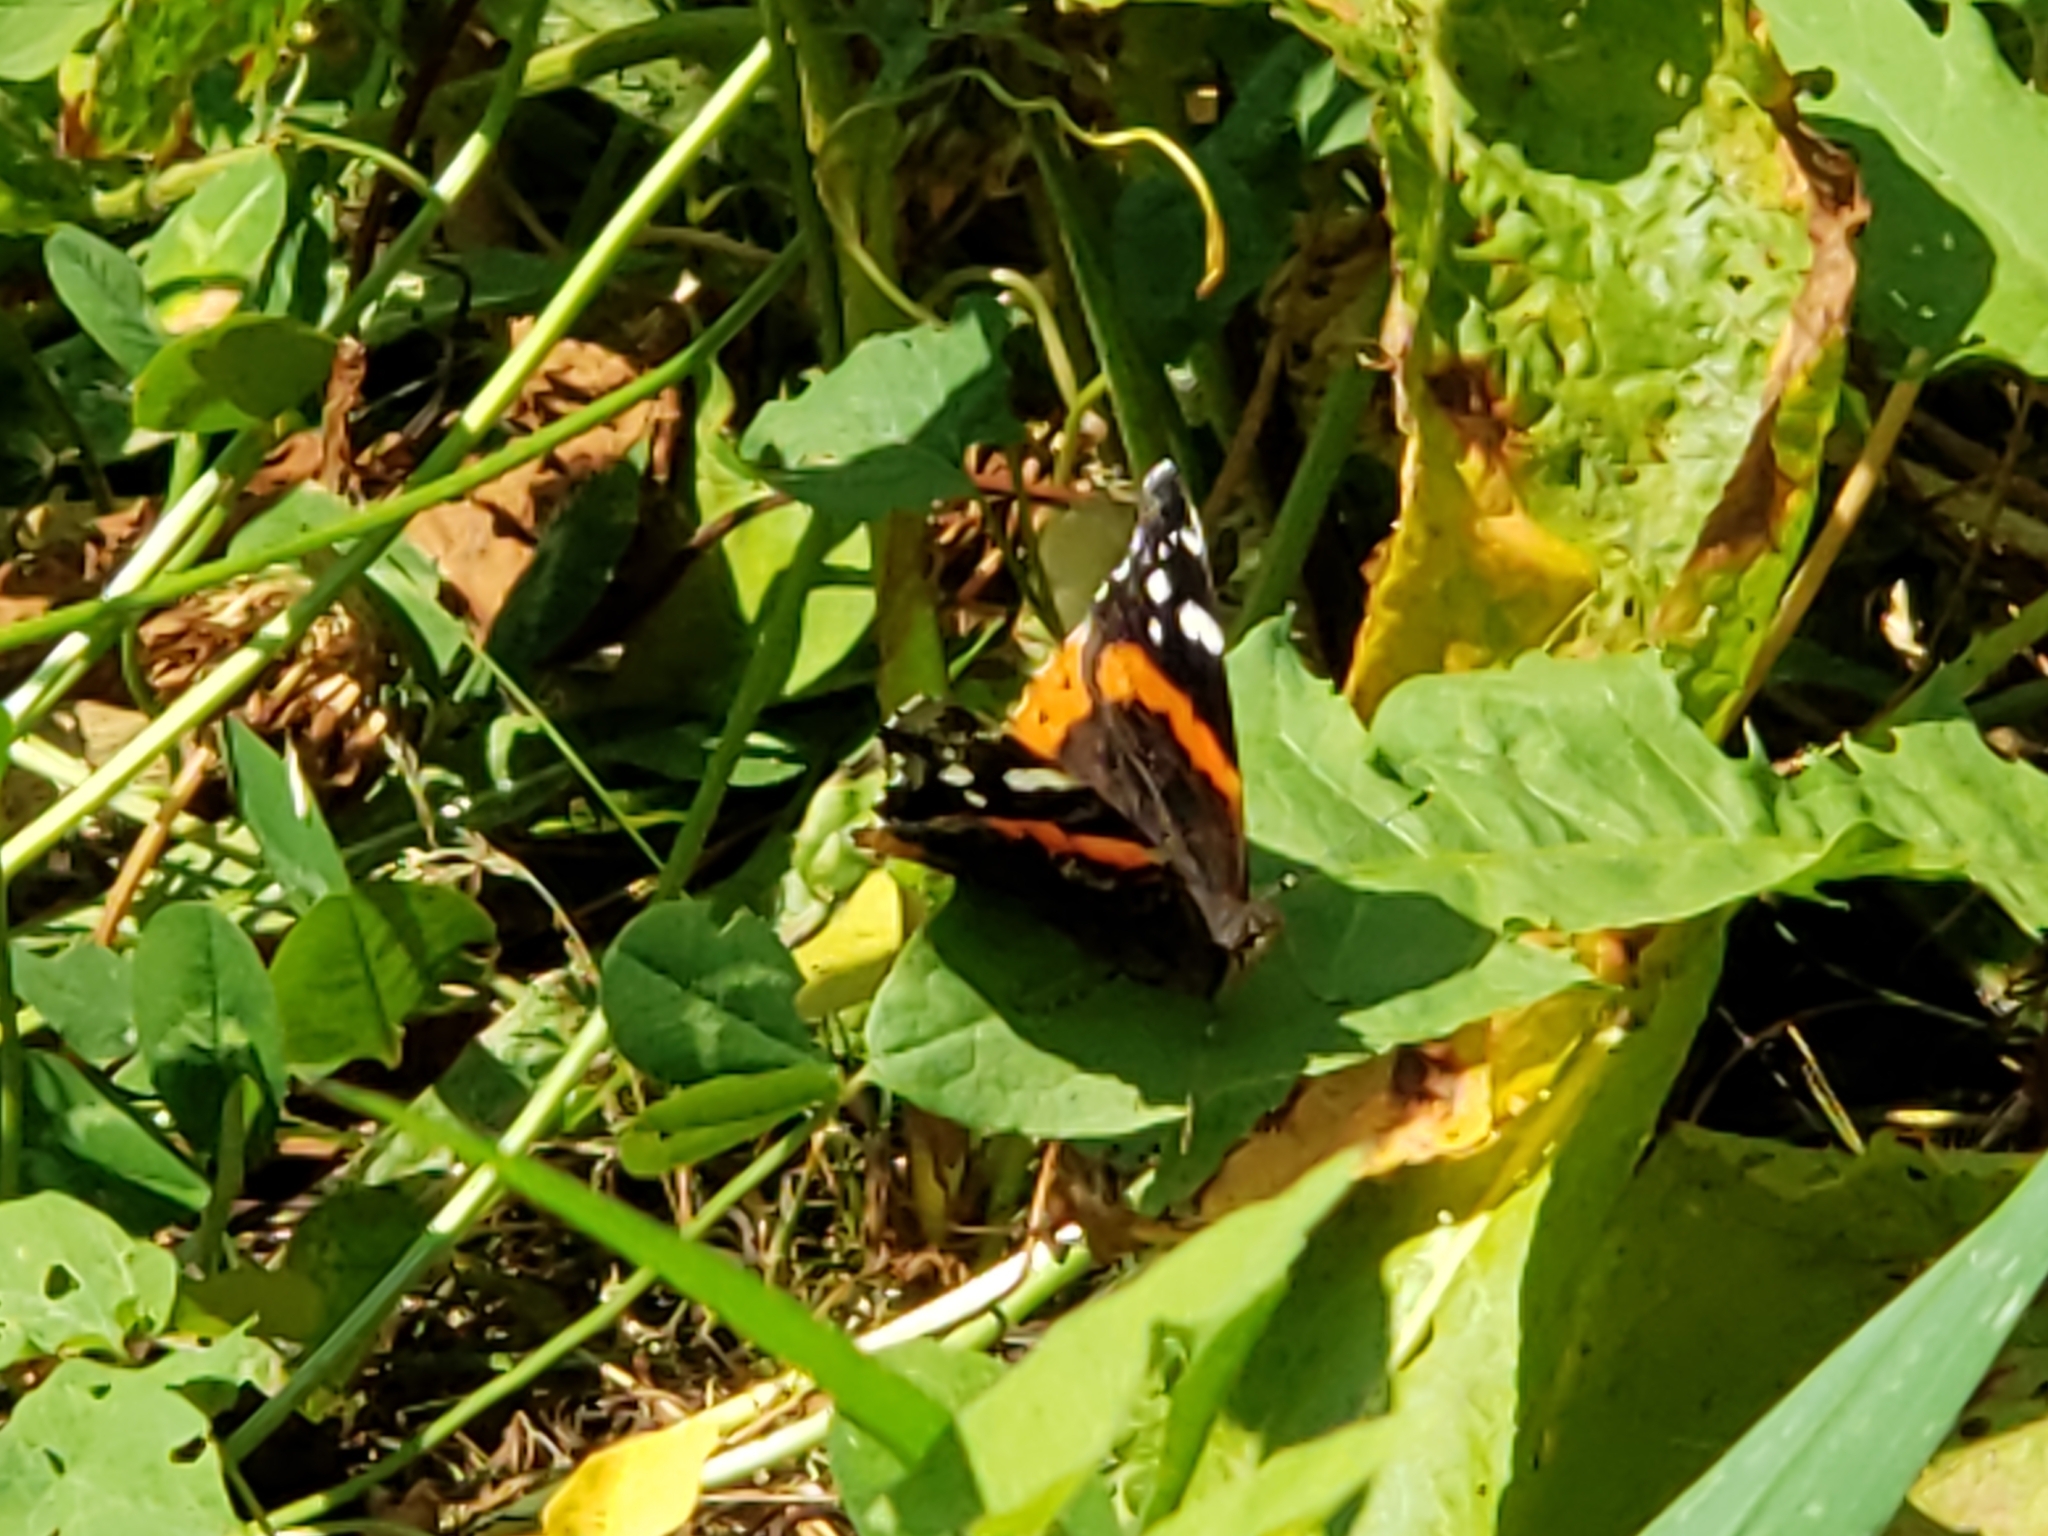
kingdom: Animalia
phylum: Arthropoda
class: Insecta
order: Lepidoptera
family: Nymphalidae
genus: Vanessa
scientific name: Vanessa atalanta
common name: Red admiral
